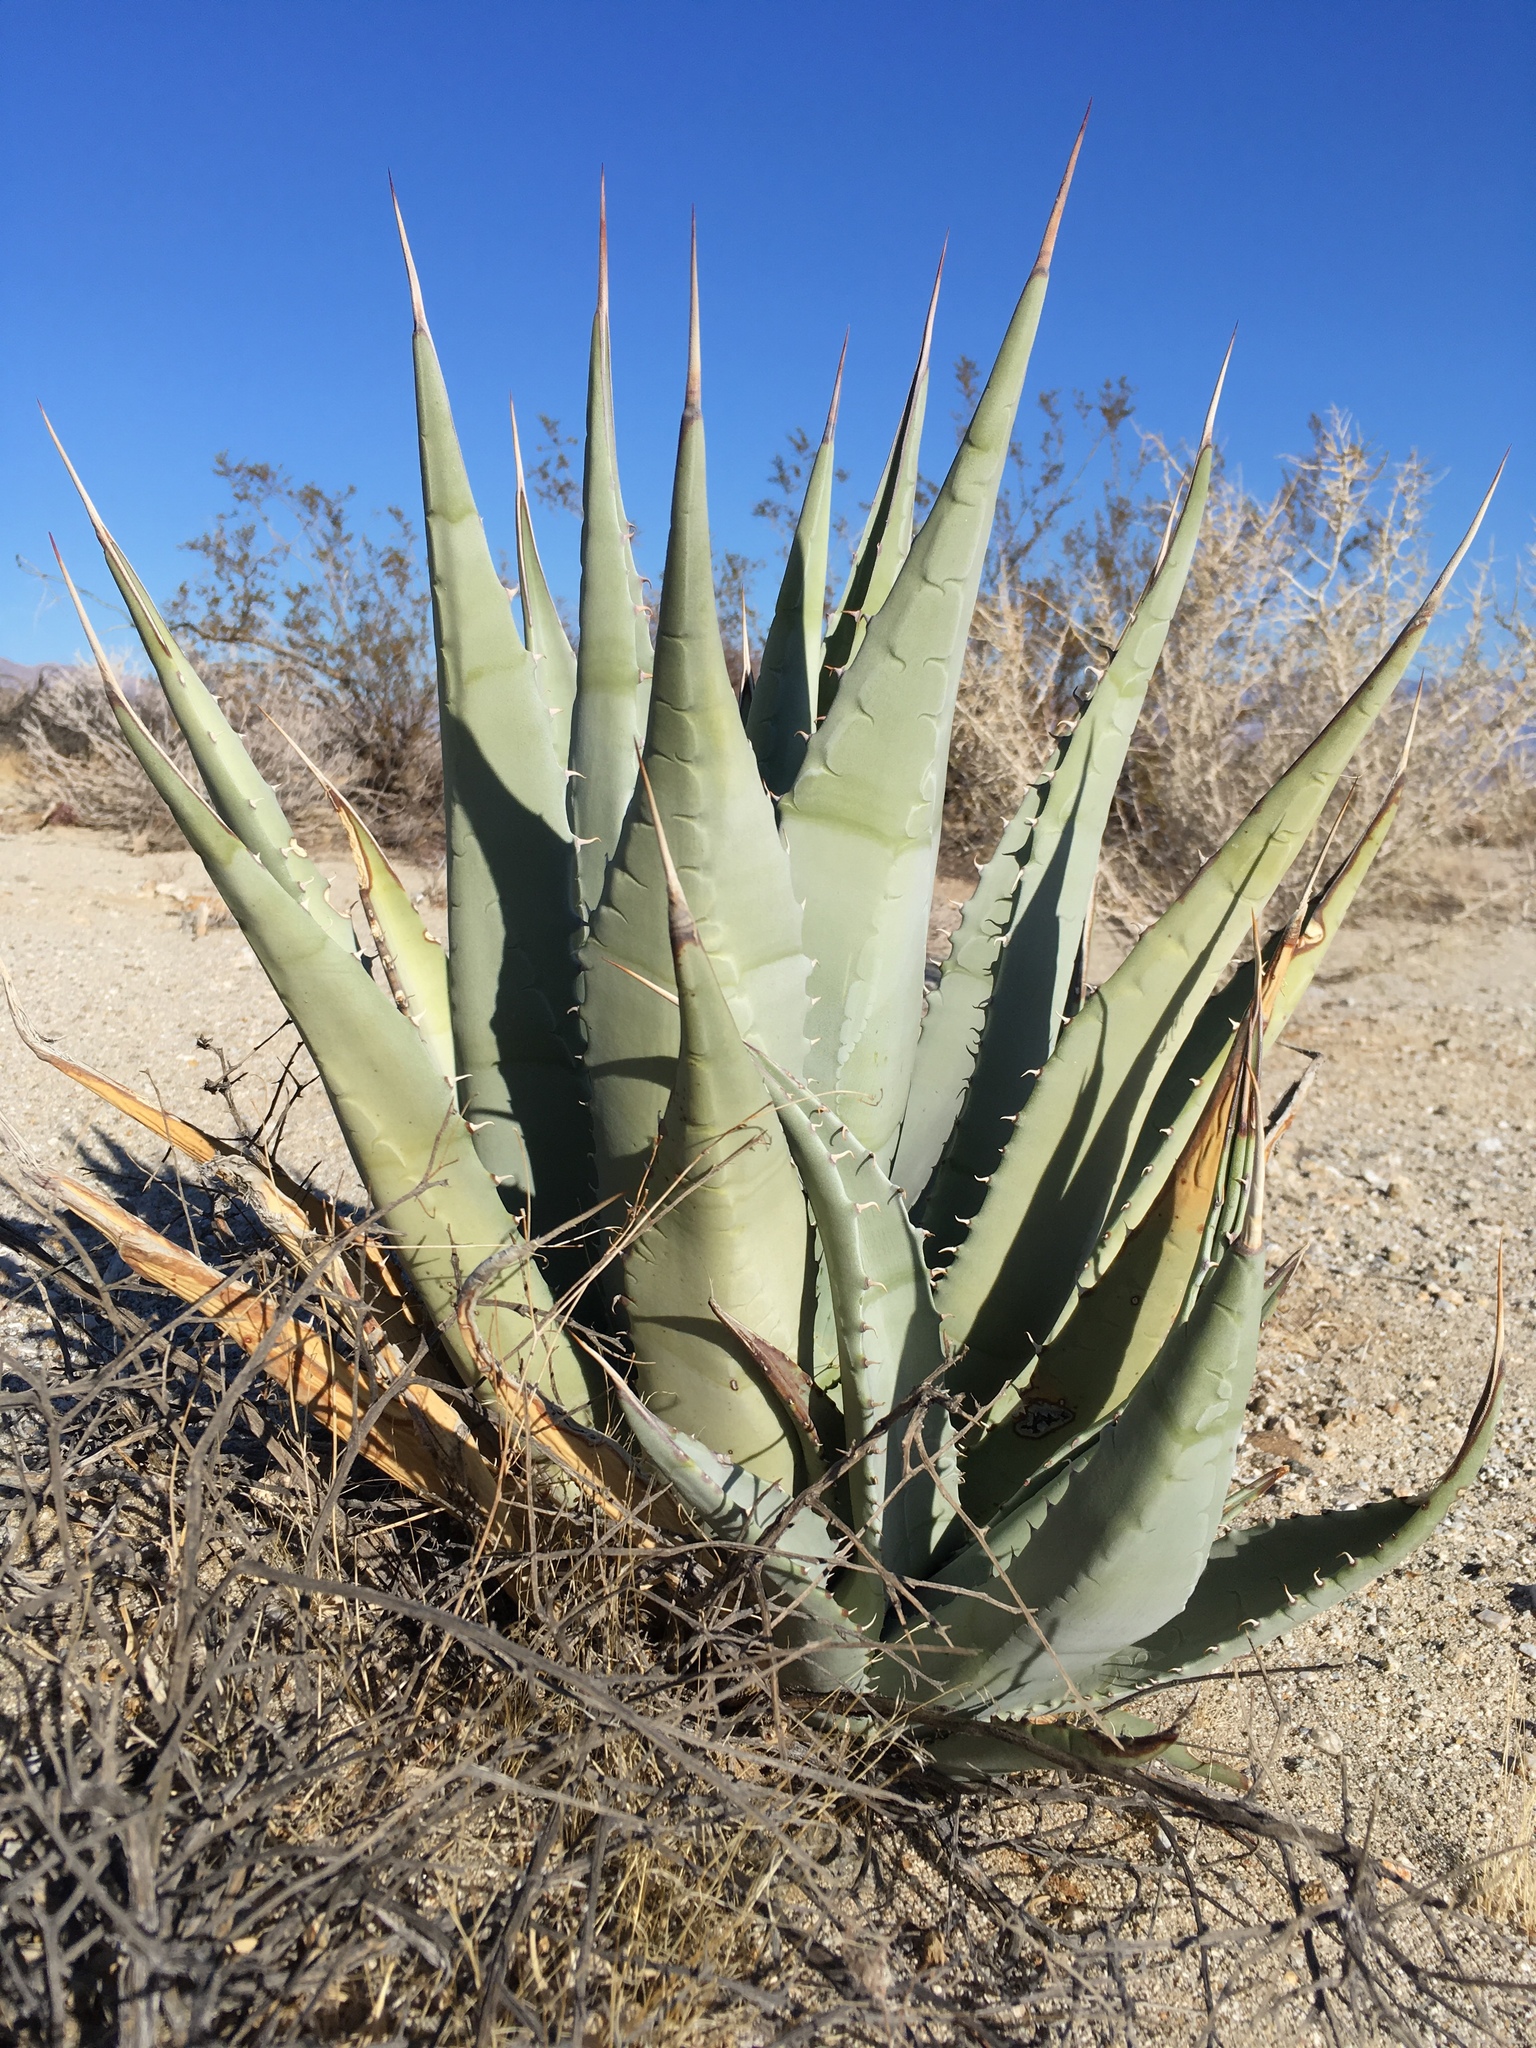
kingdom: Plantae
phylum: Tracheophyta
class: Liliopsida
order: Asparagales
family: Asparagaceae
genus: Agave
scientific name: Agave deserti
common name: Desert agave
